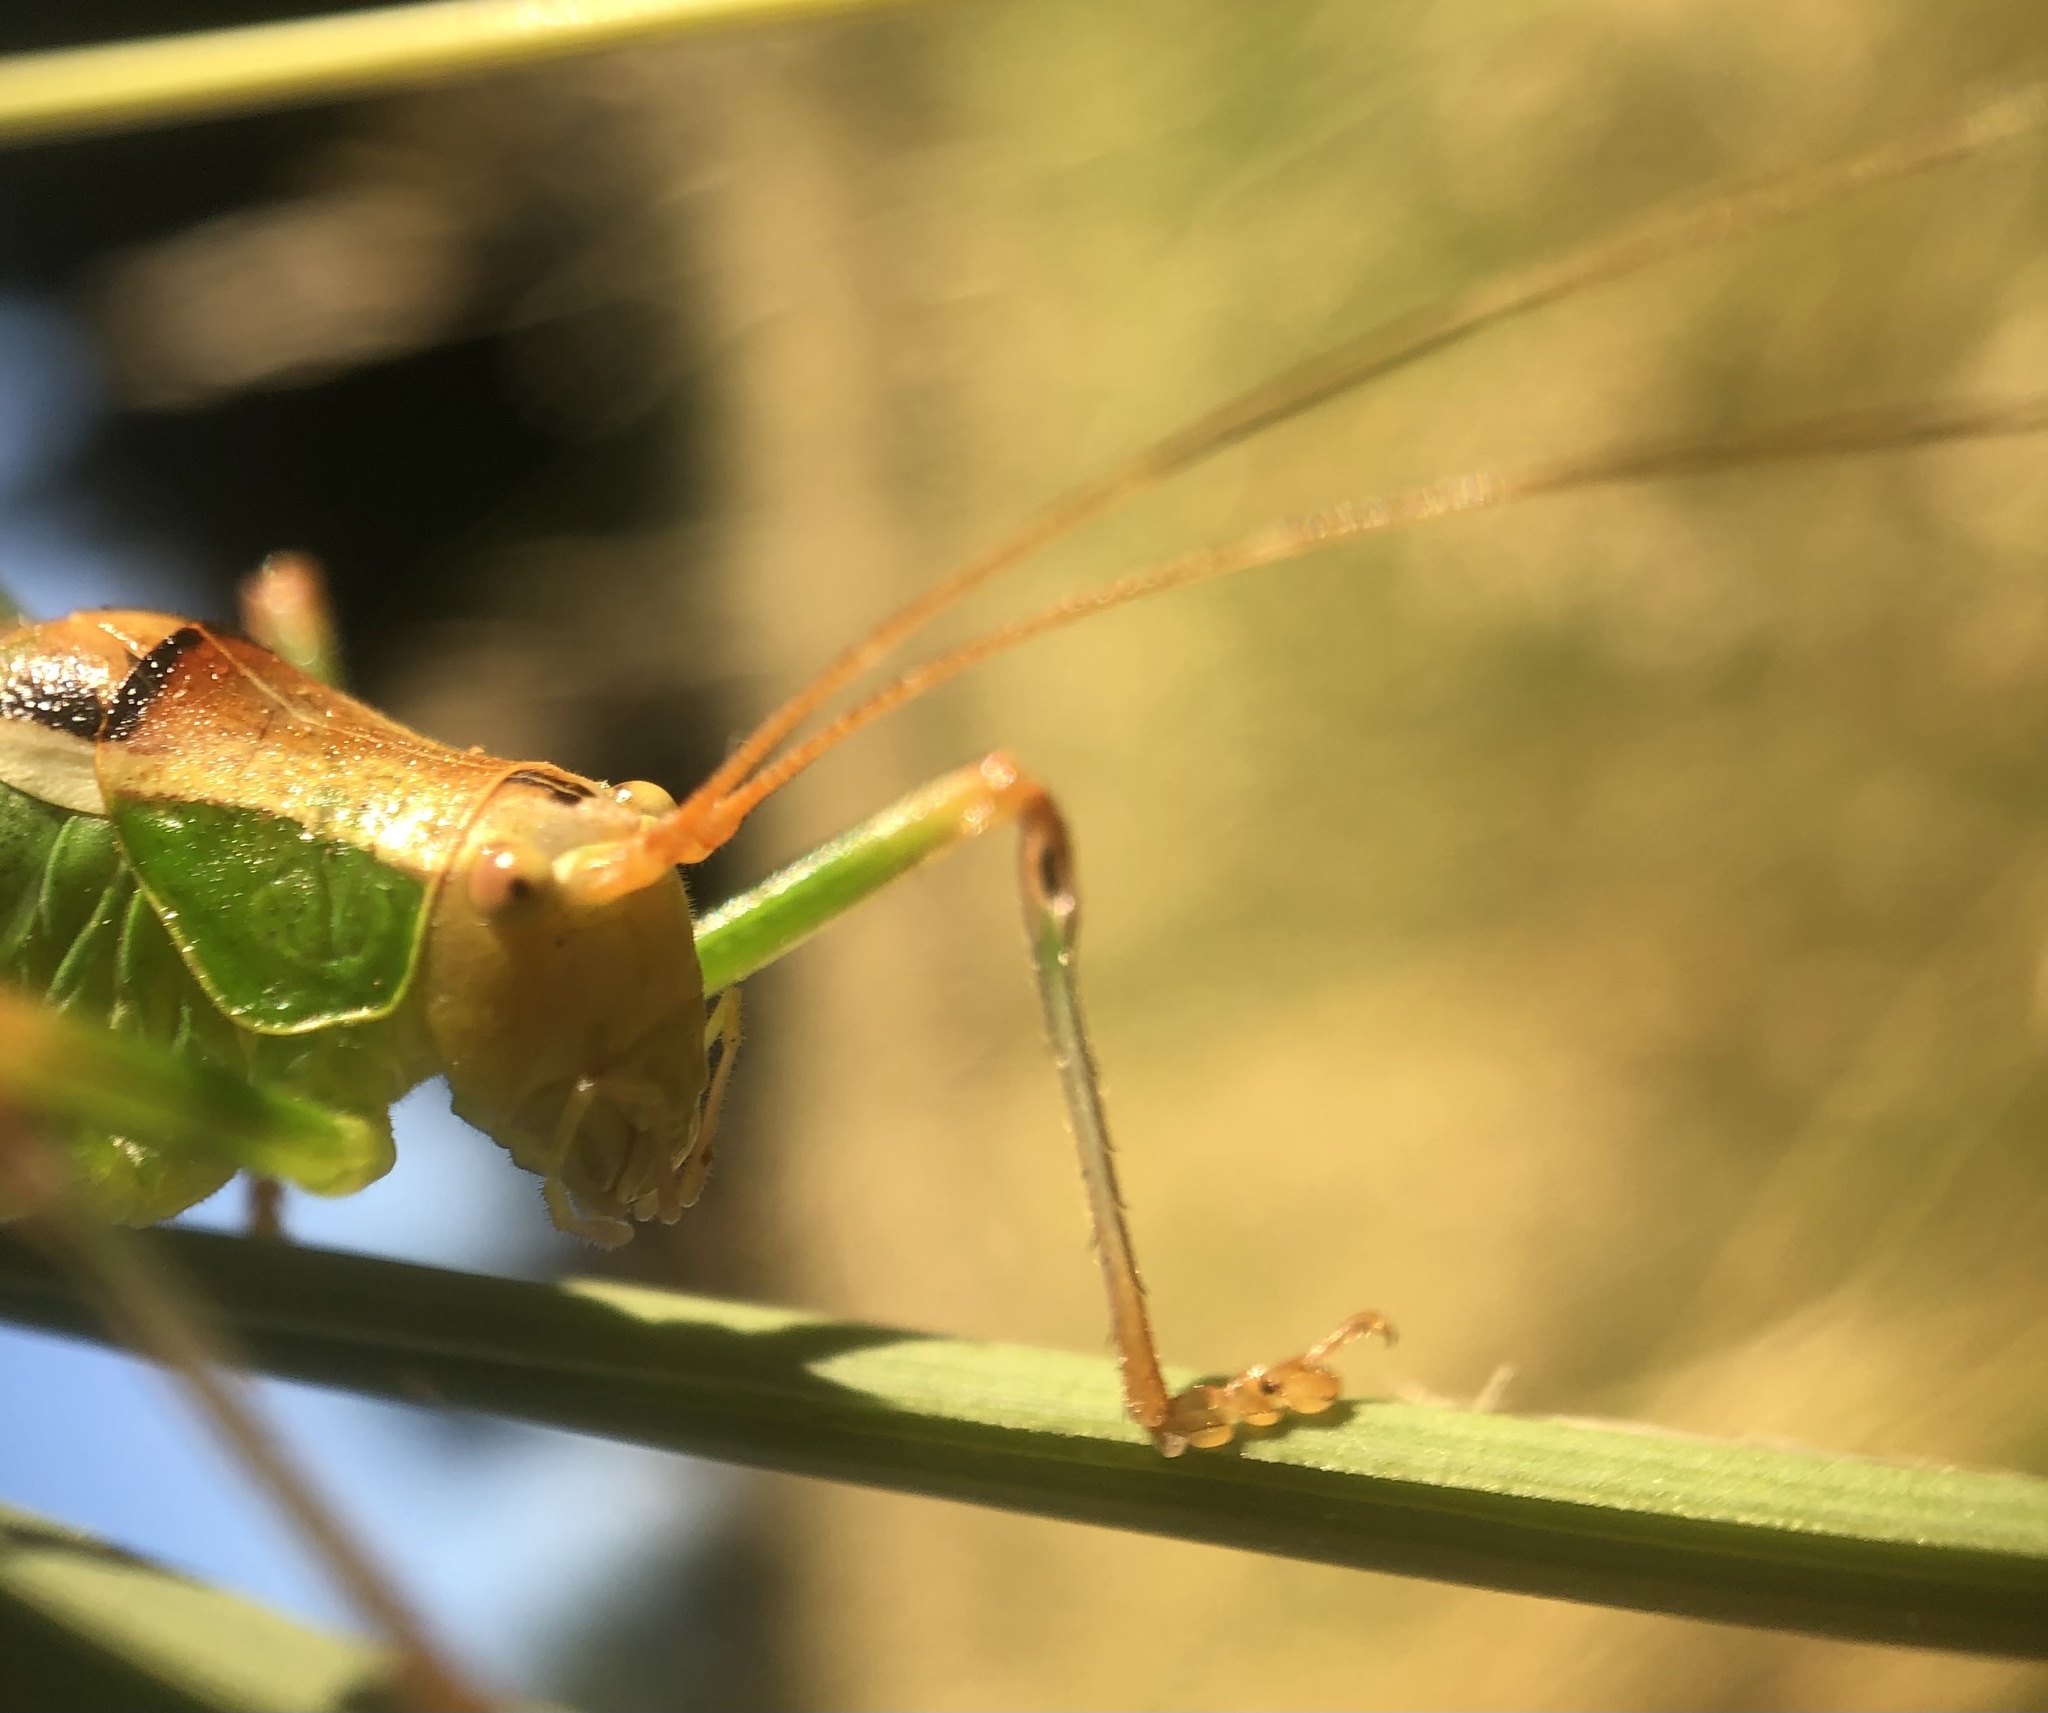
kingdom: Animalia
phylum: Arthropoda
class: Insecta
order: Orthoptera
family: Tettigoniidae
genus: Metaplastes
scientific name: Metaplastes pulchripennis
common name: Italian ornate bush-cricket
